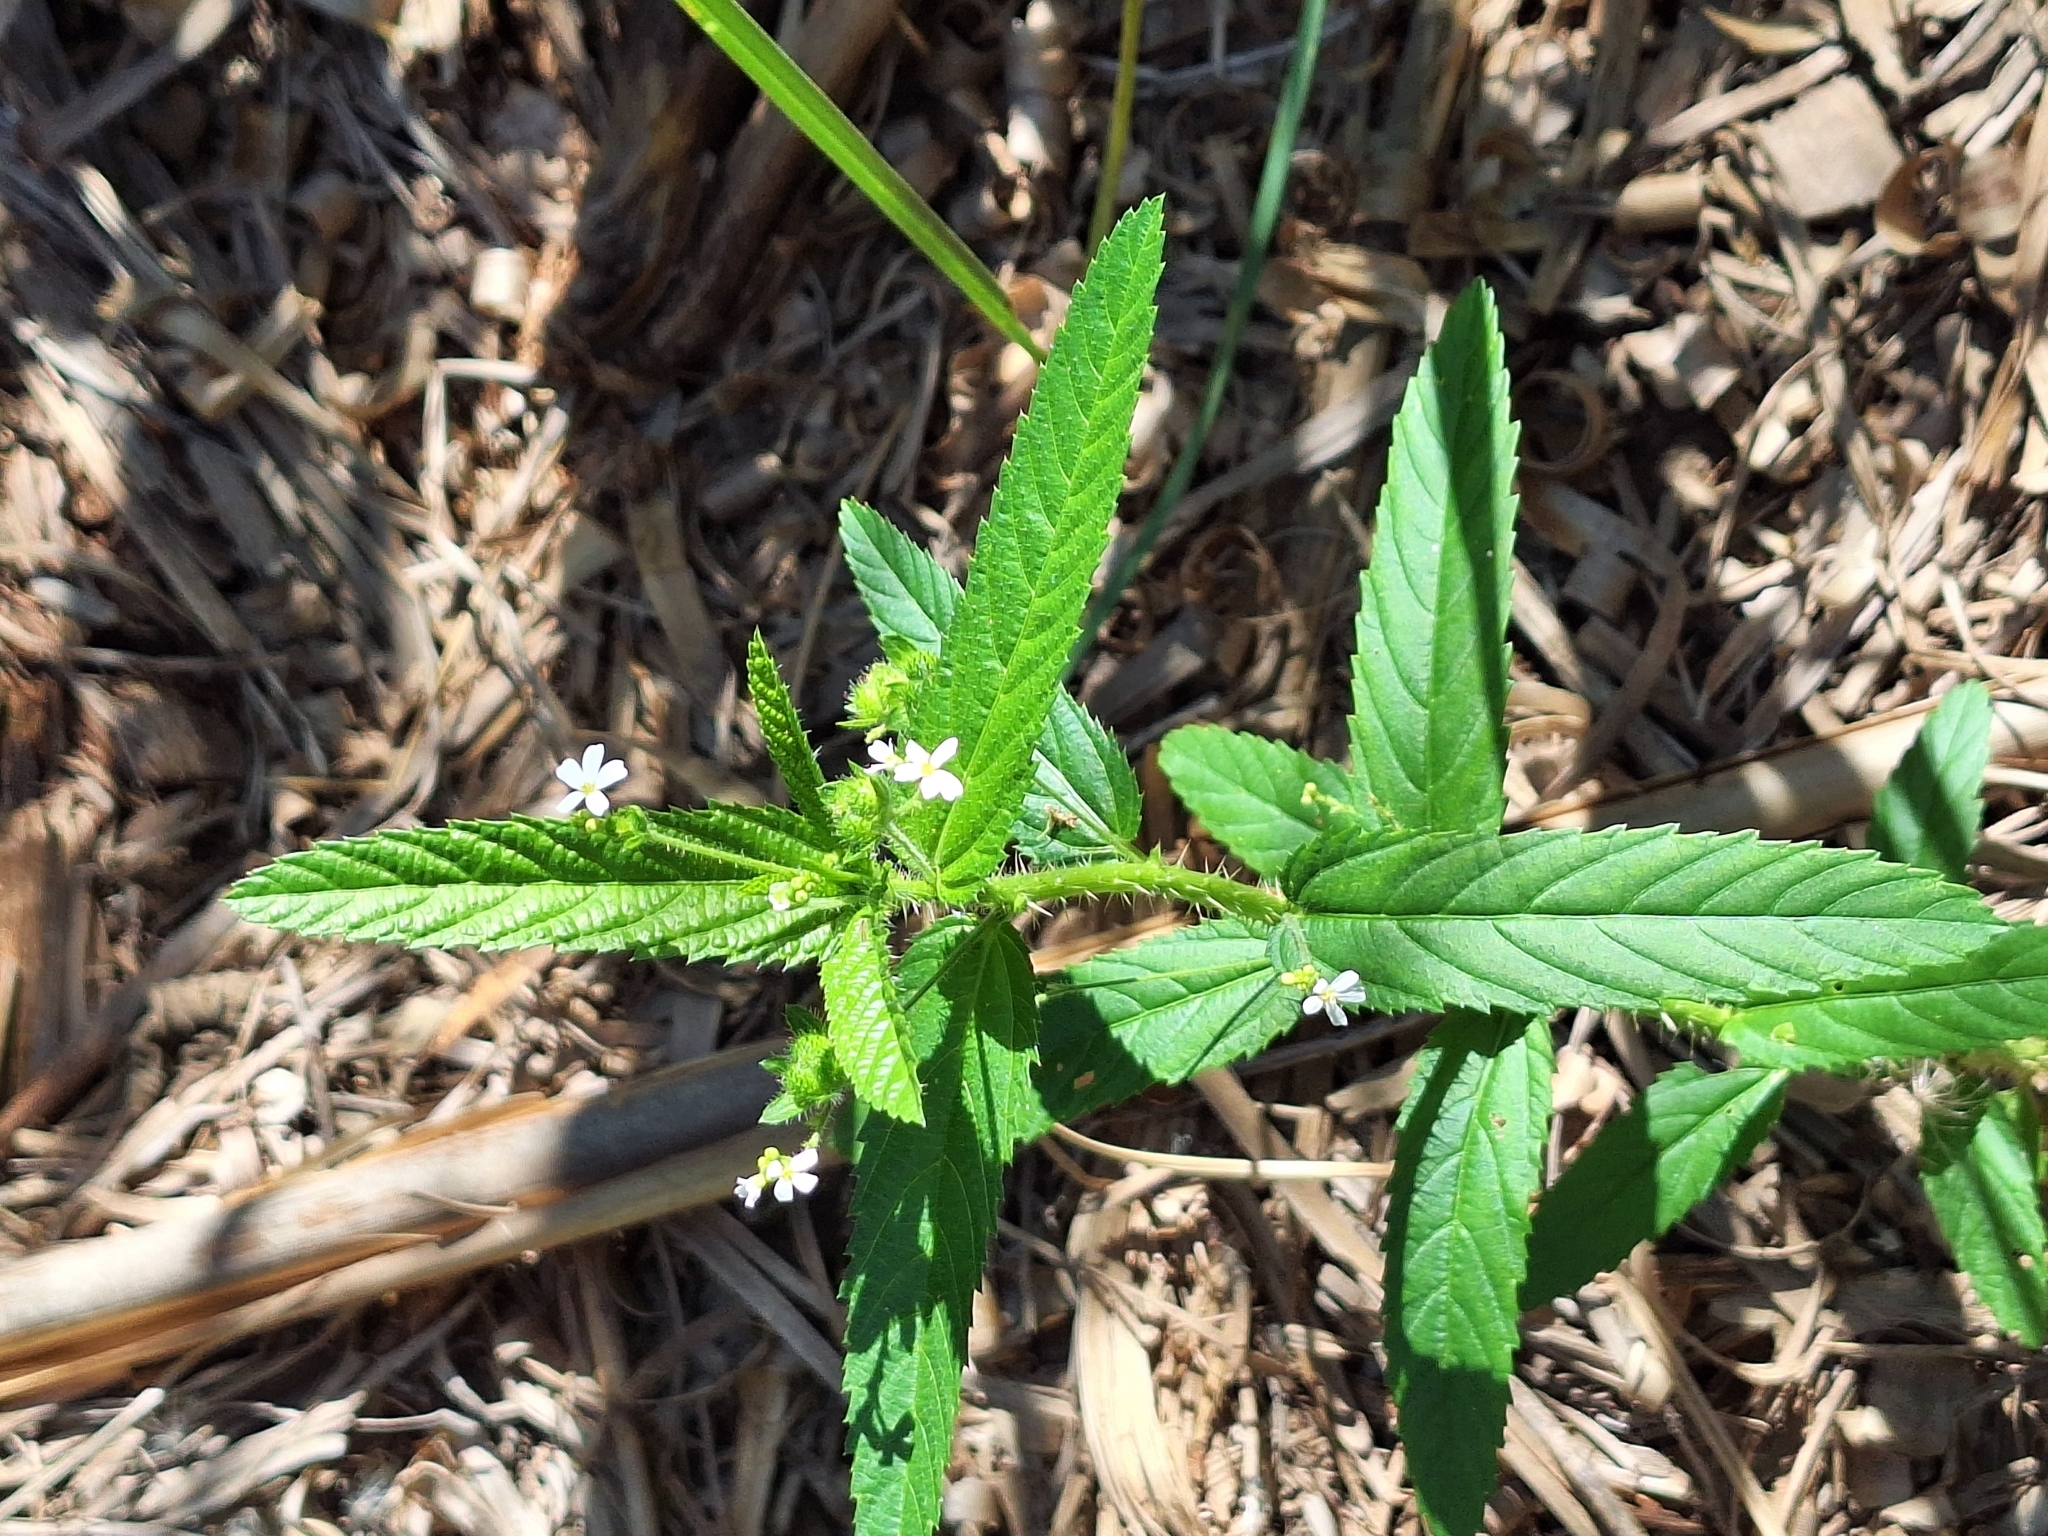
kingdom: Plantae
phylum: Tracheophyta
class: Magnoliopsida
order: Malpighiales
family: Euphorbiaceae
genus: Caperonia
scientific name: Caperonia linearifolia
